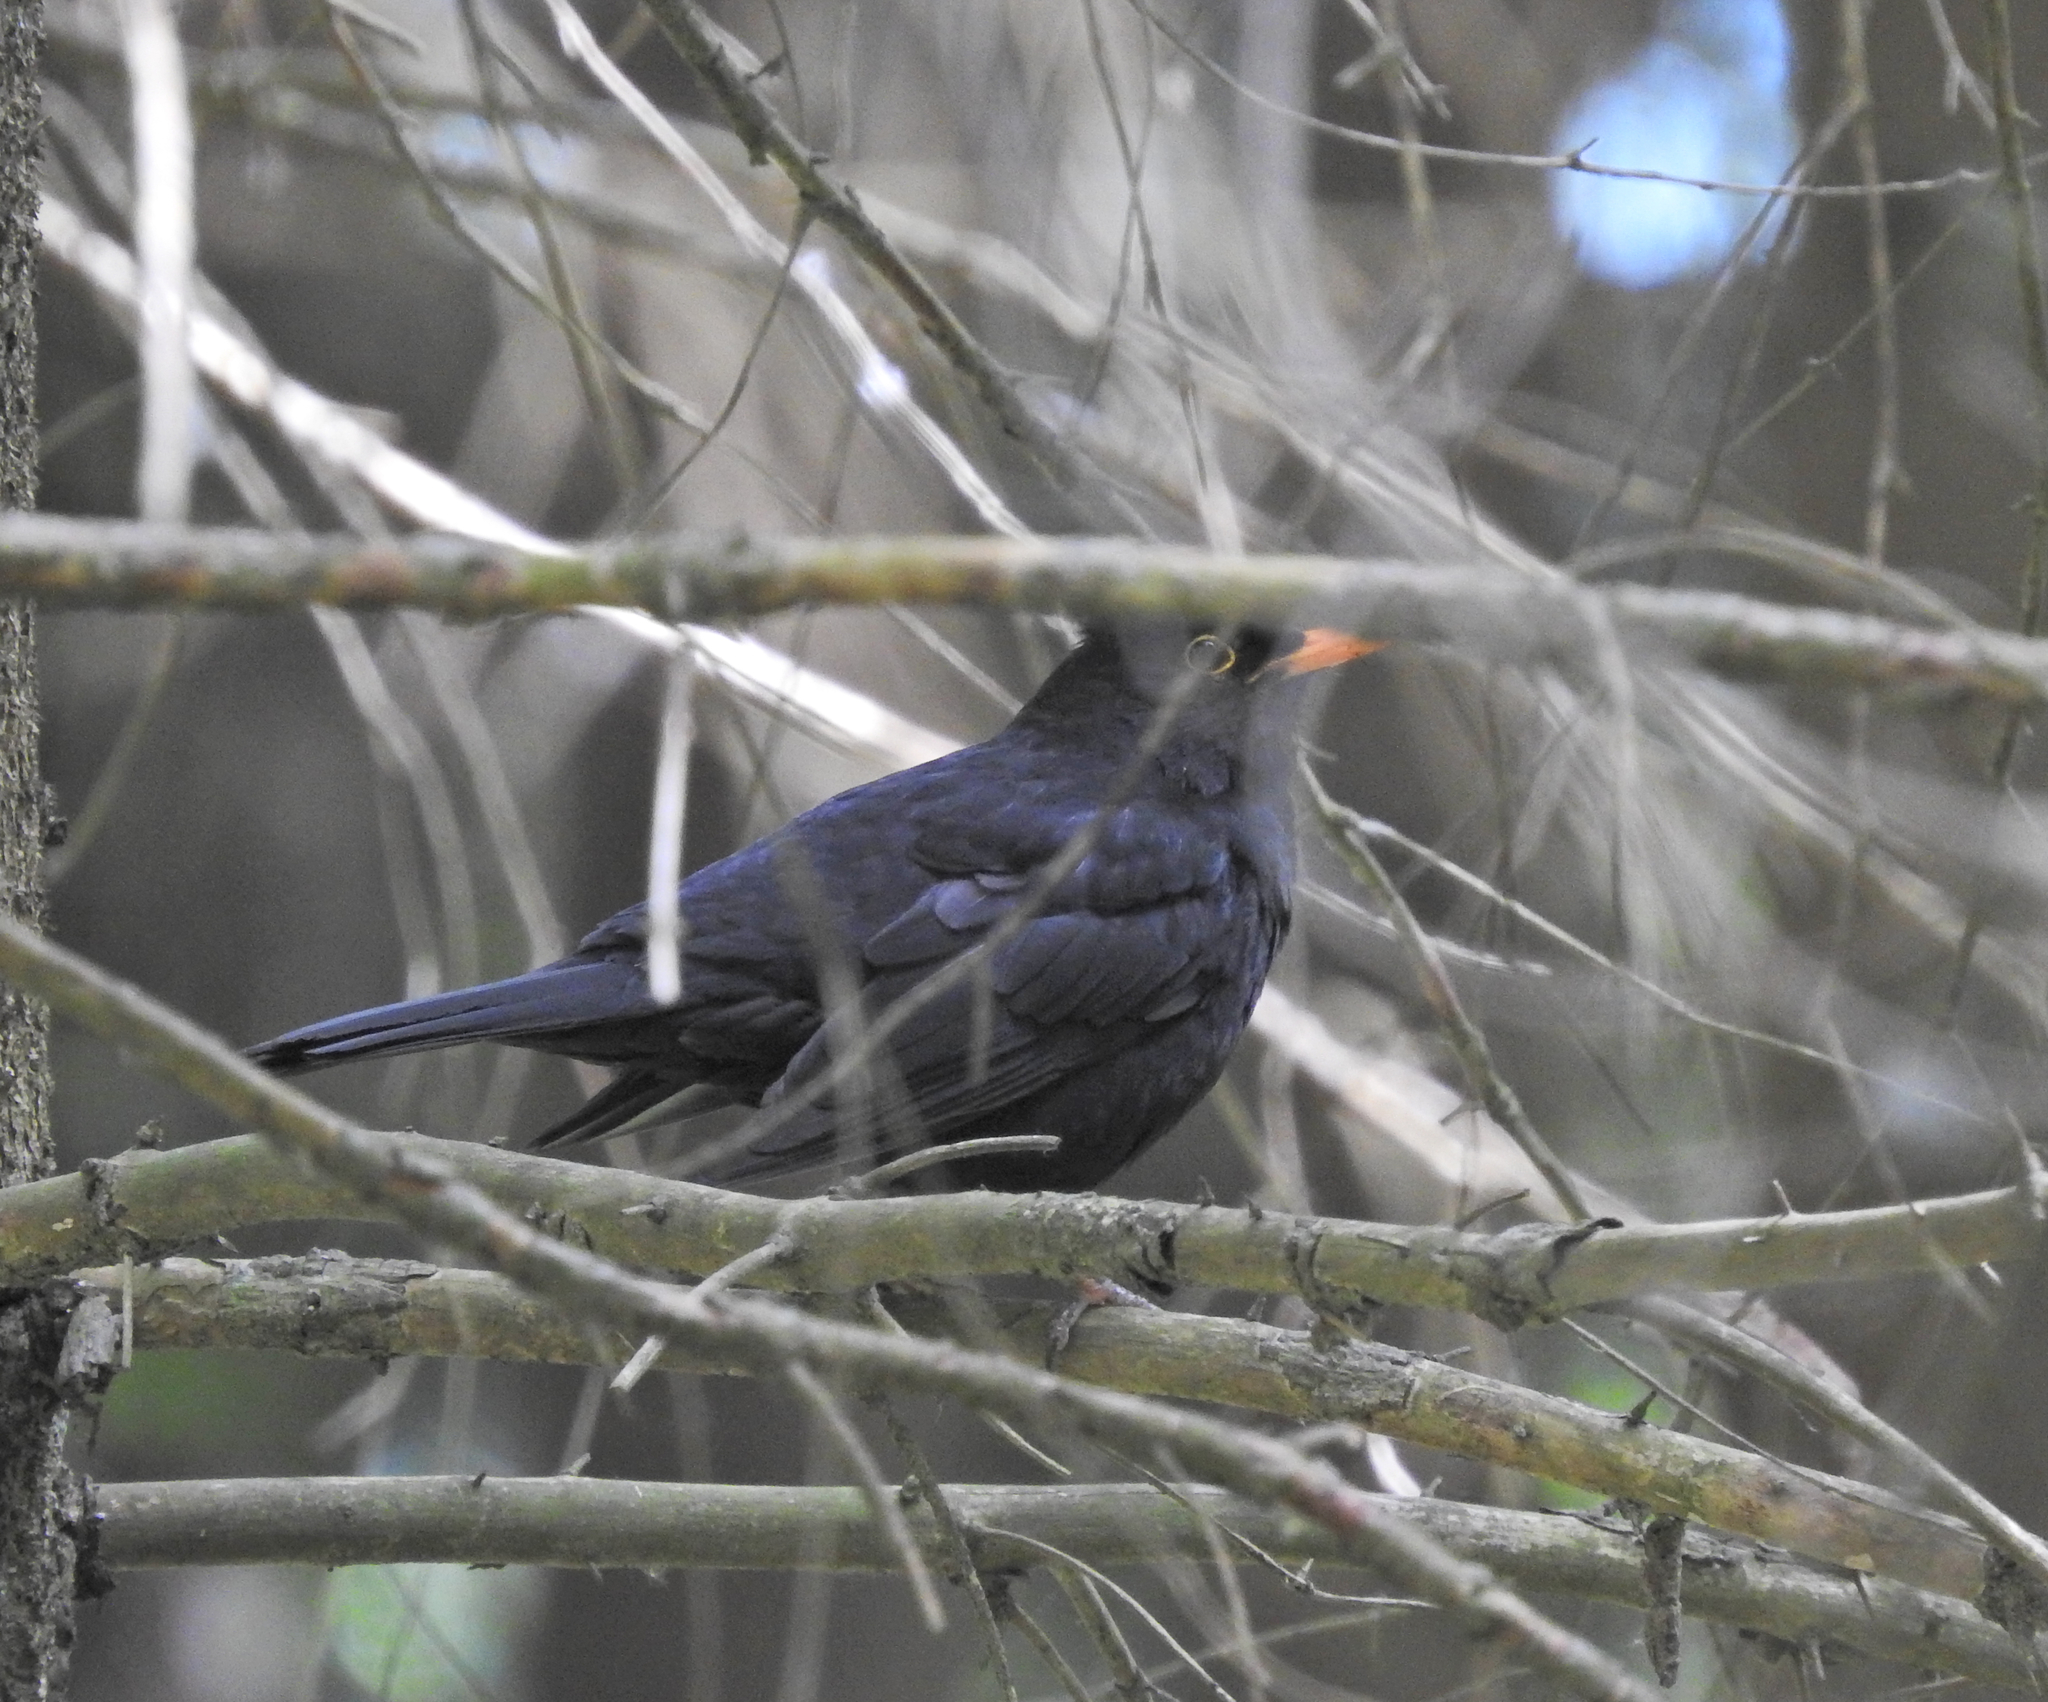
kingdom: Animalia
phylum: Chordata
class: Aves
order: Passeriformes
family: Turdidae
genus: Turdus
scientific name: Turdus merula
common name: Common blackbird
